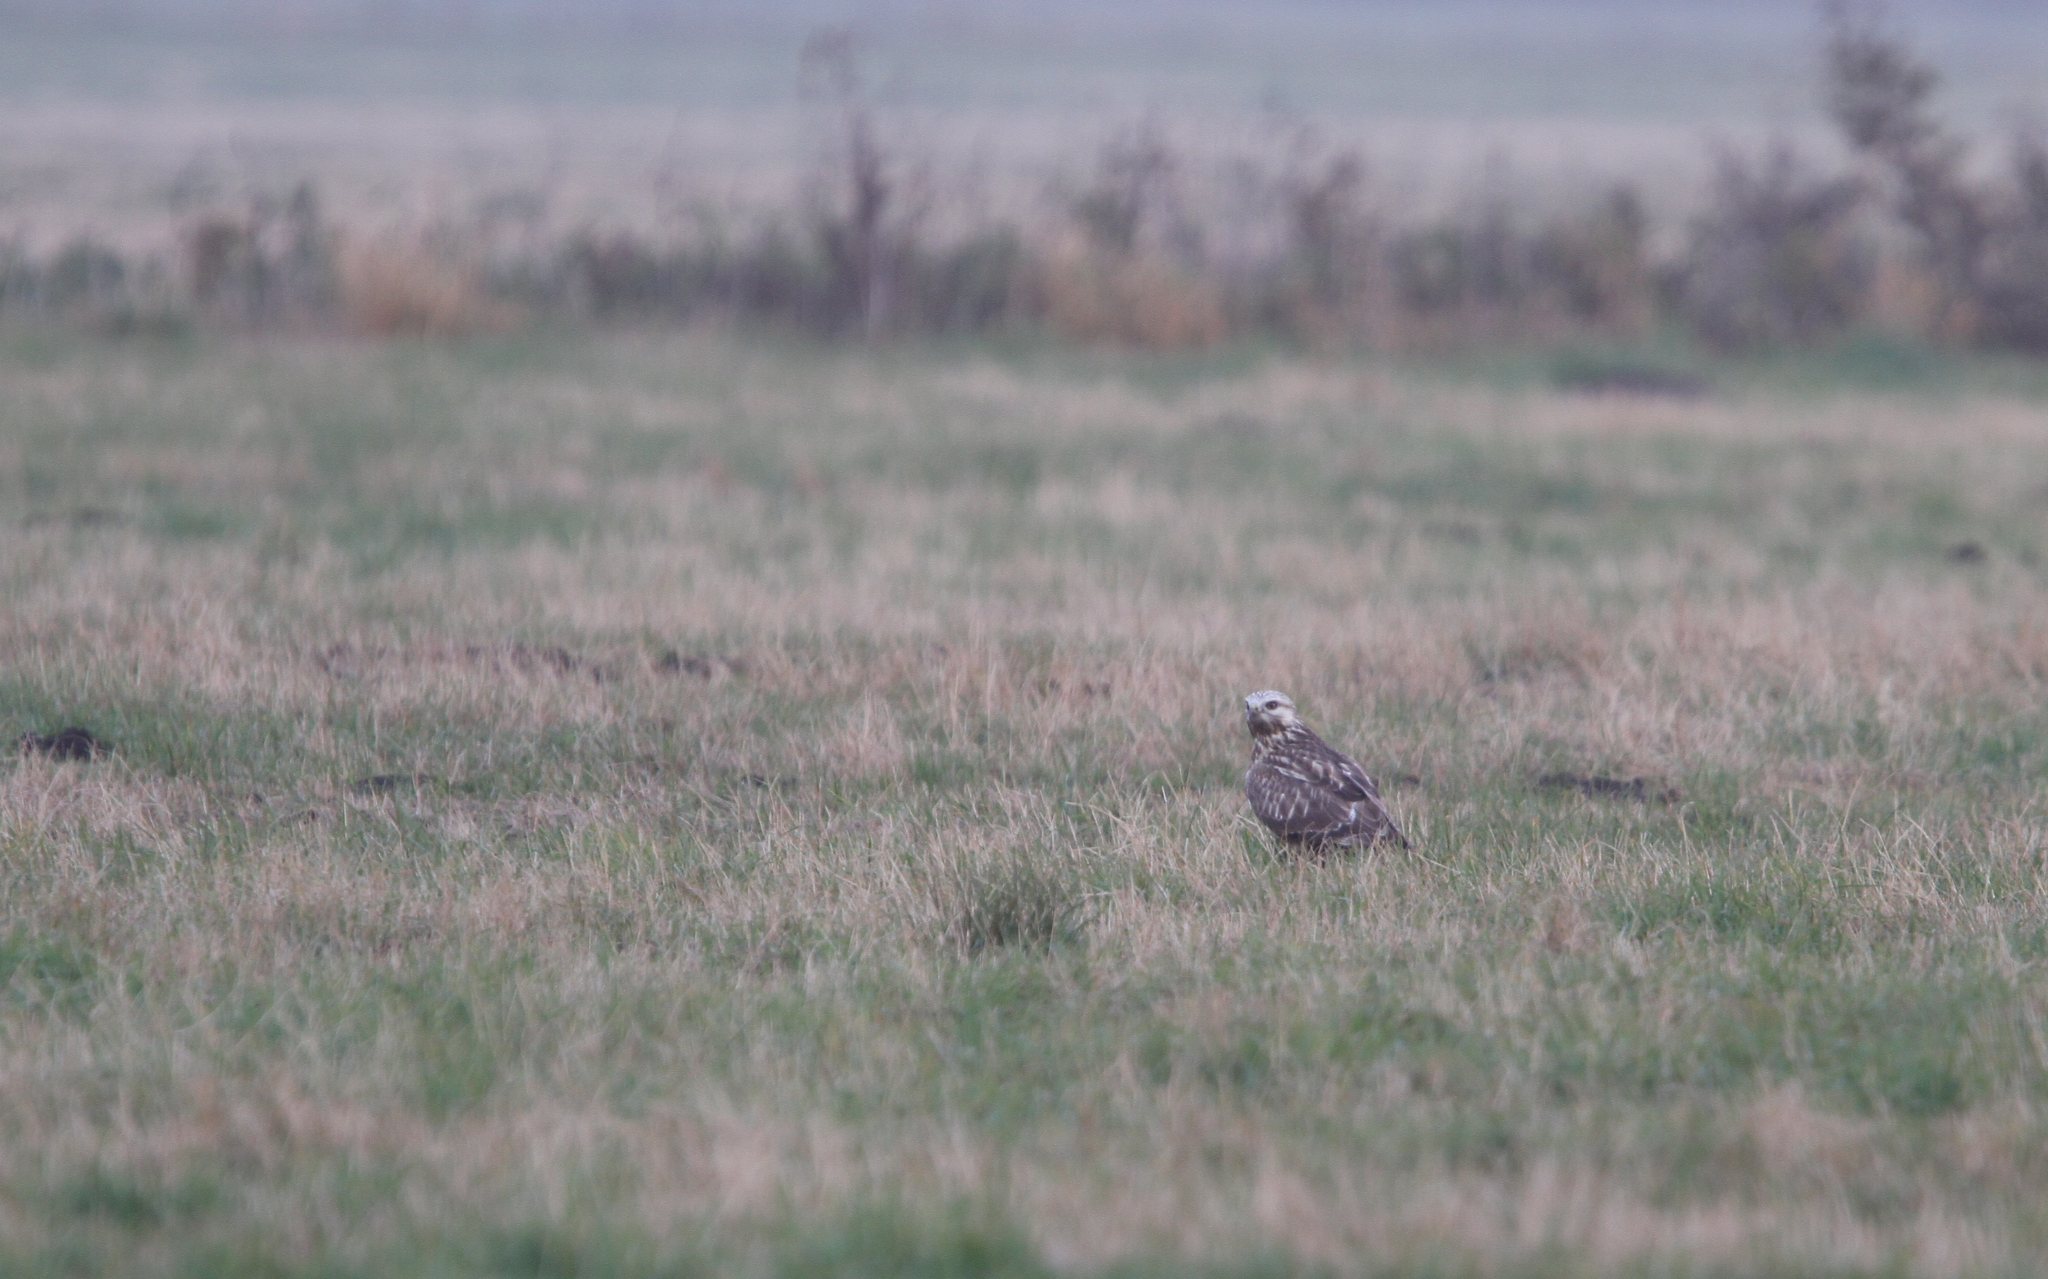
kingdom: Animalia
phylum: Chordata
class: Aves
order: Accipitriformes
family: Accipitridae
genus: Buteo
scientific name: Buteo lagopus
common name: Rough-legged buzzard
